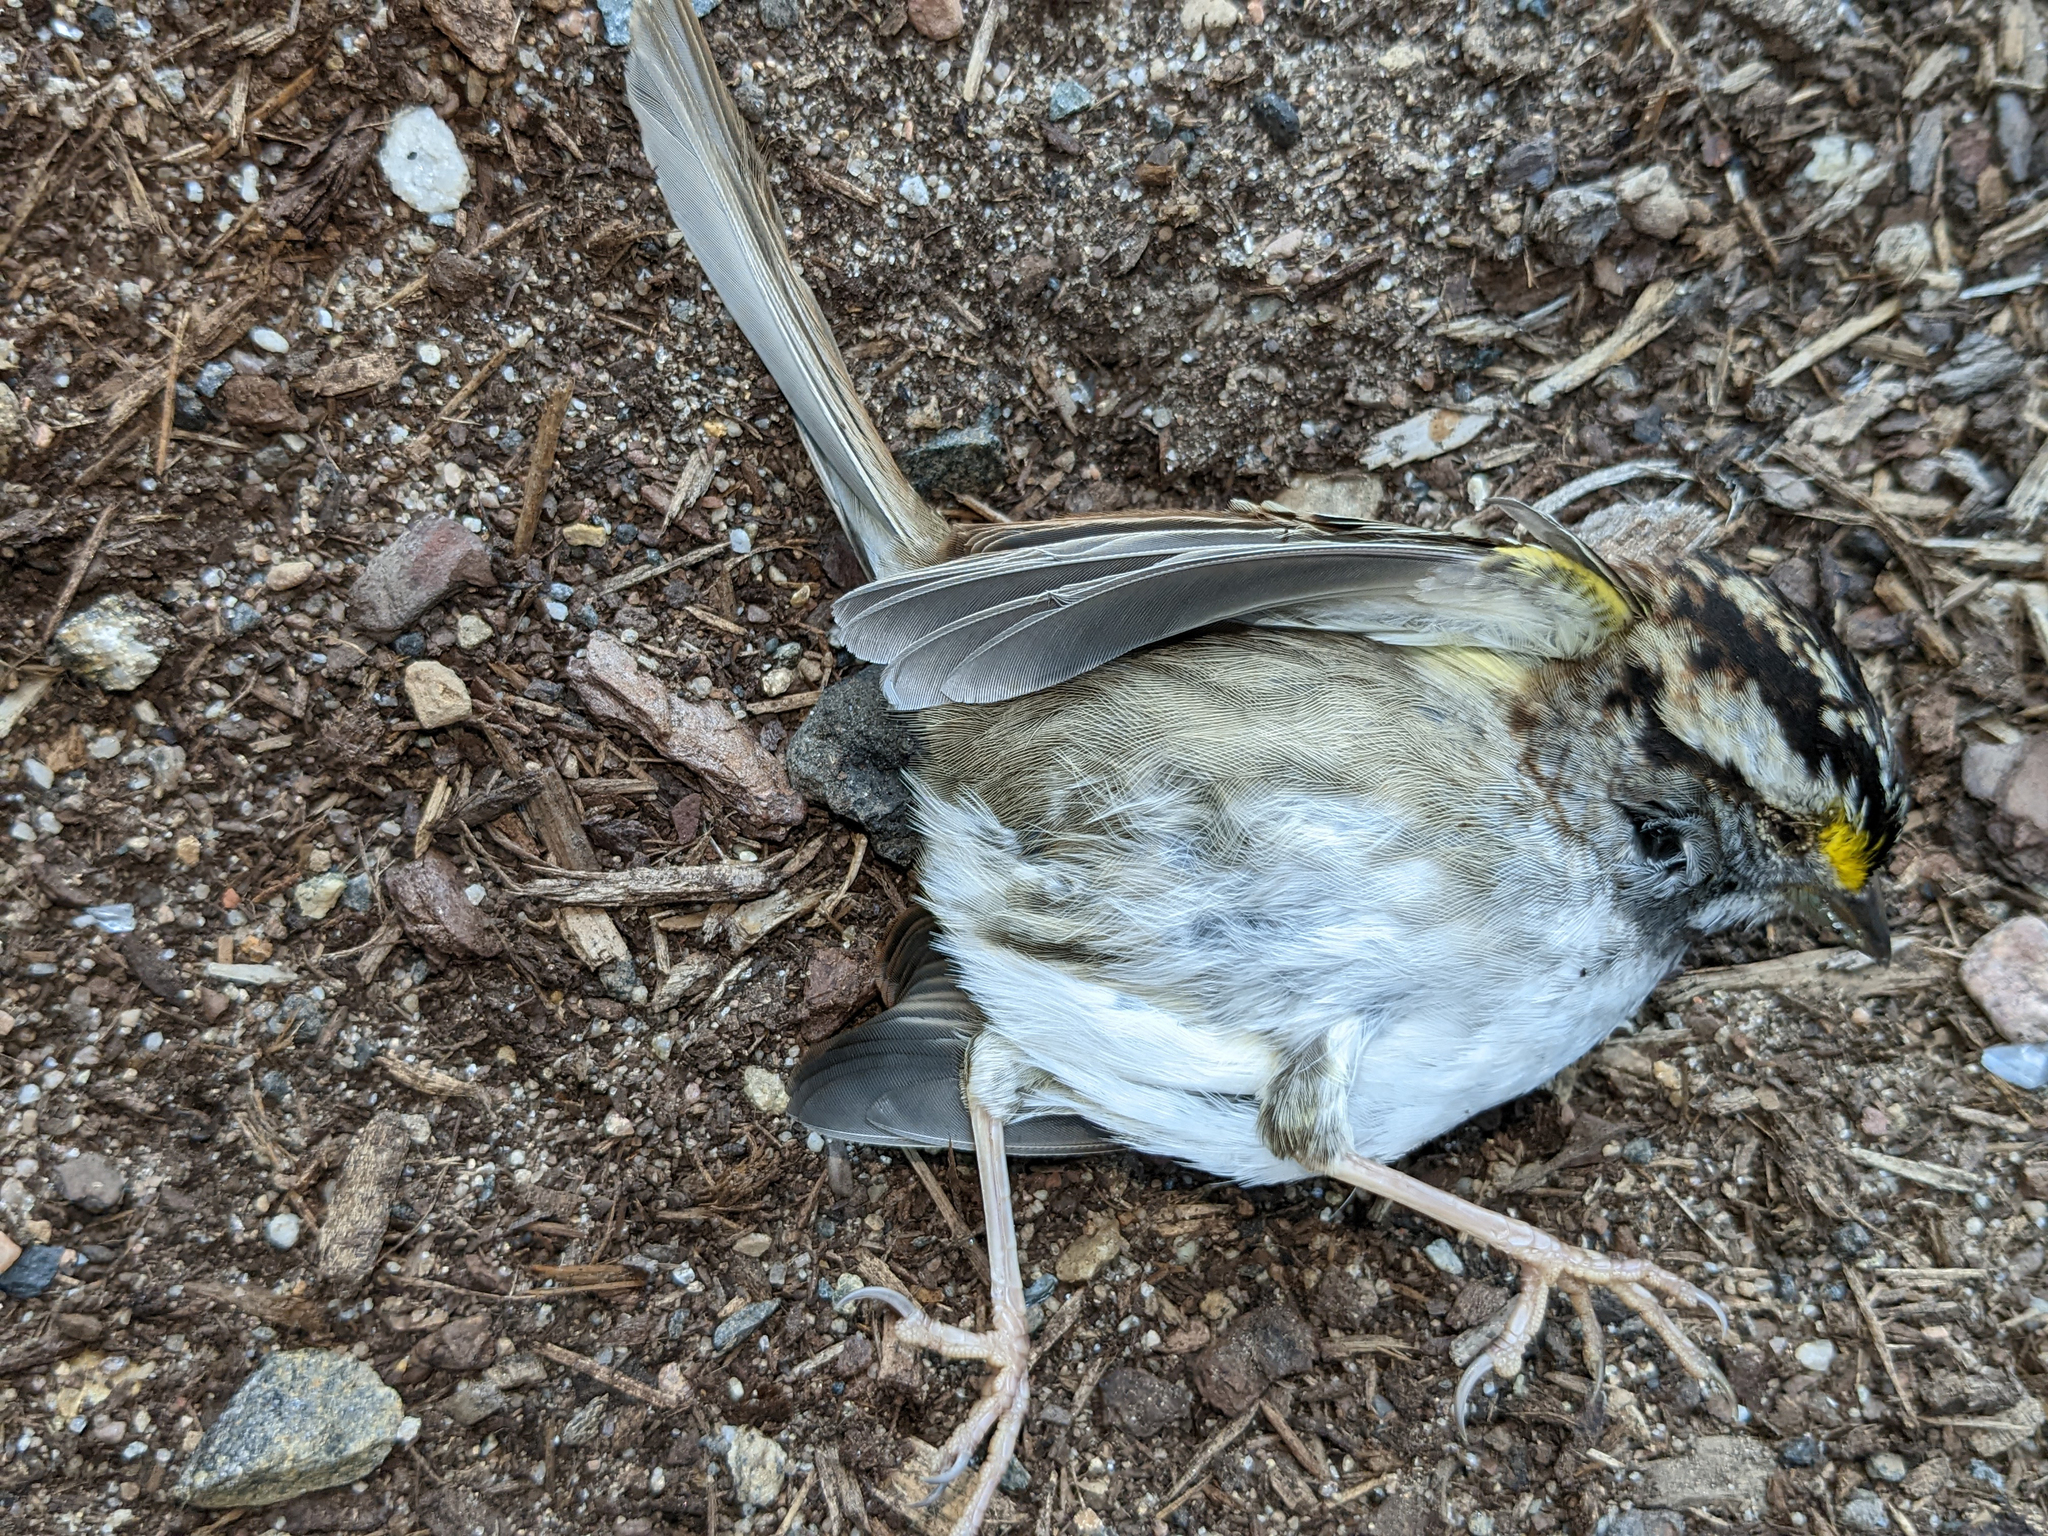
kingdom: Animalia
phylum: Chordata
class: Aves
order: Passeriformes
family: Passerellidae
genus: Zonotrichia
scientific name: Zonotrichia albicollis
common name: White-throated sparrow
